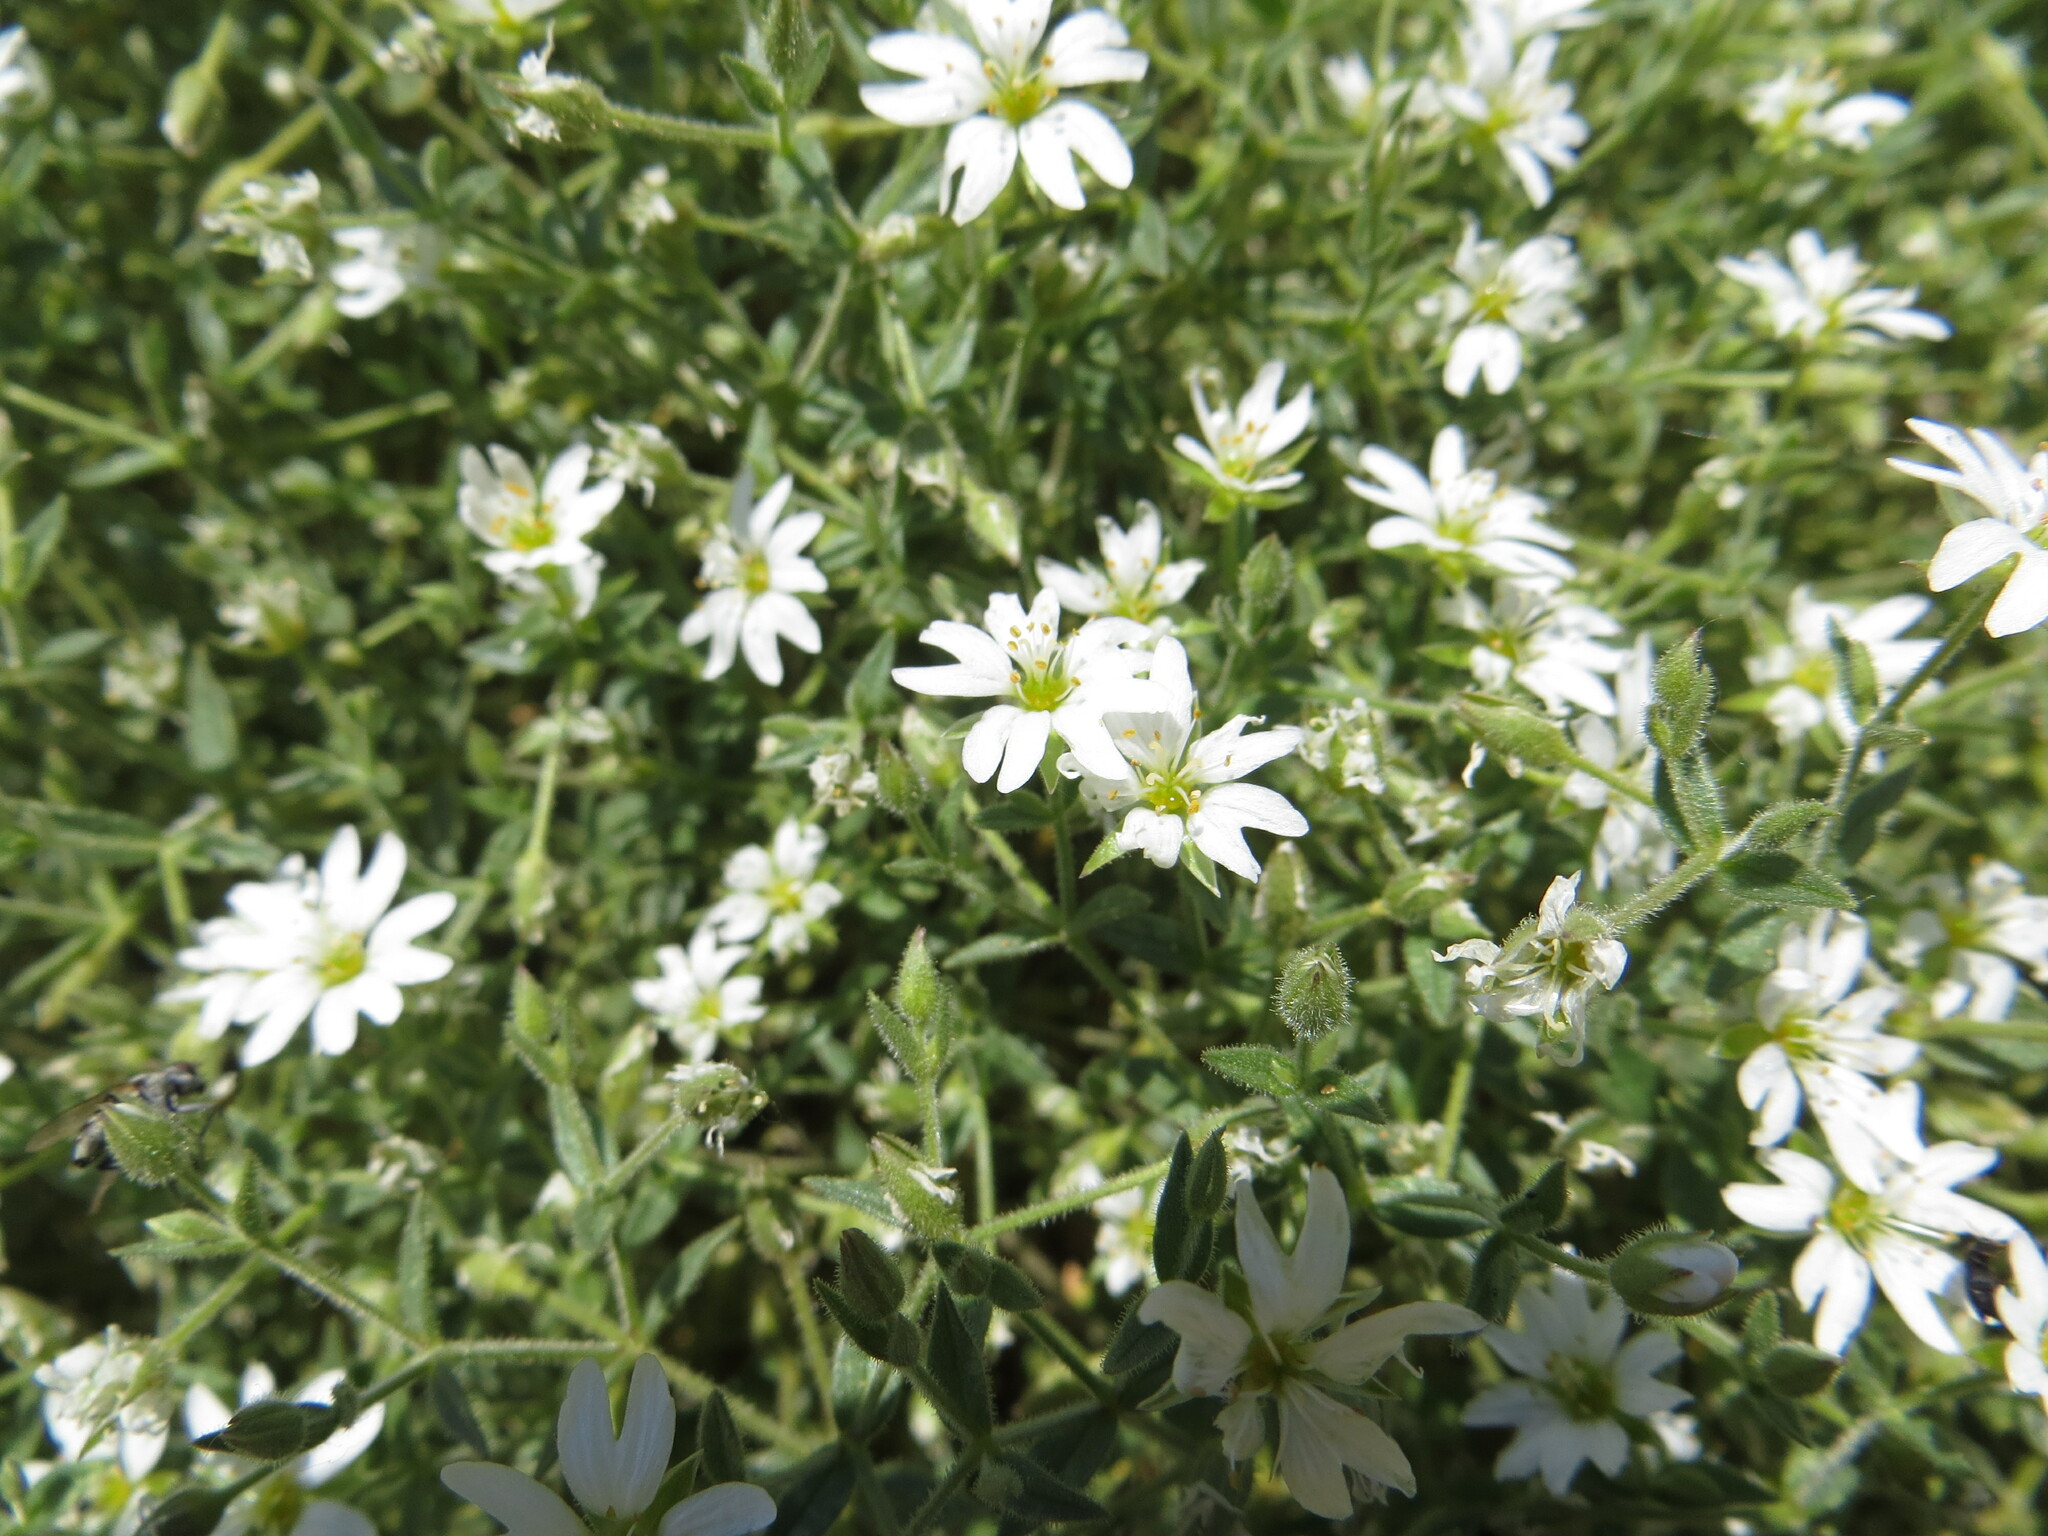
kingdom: Plantae
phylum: Tracheophyta
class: Magnoliopsida
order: Caryophyllales
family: Caryophyllaceae
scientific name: Caryophyllaceae
